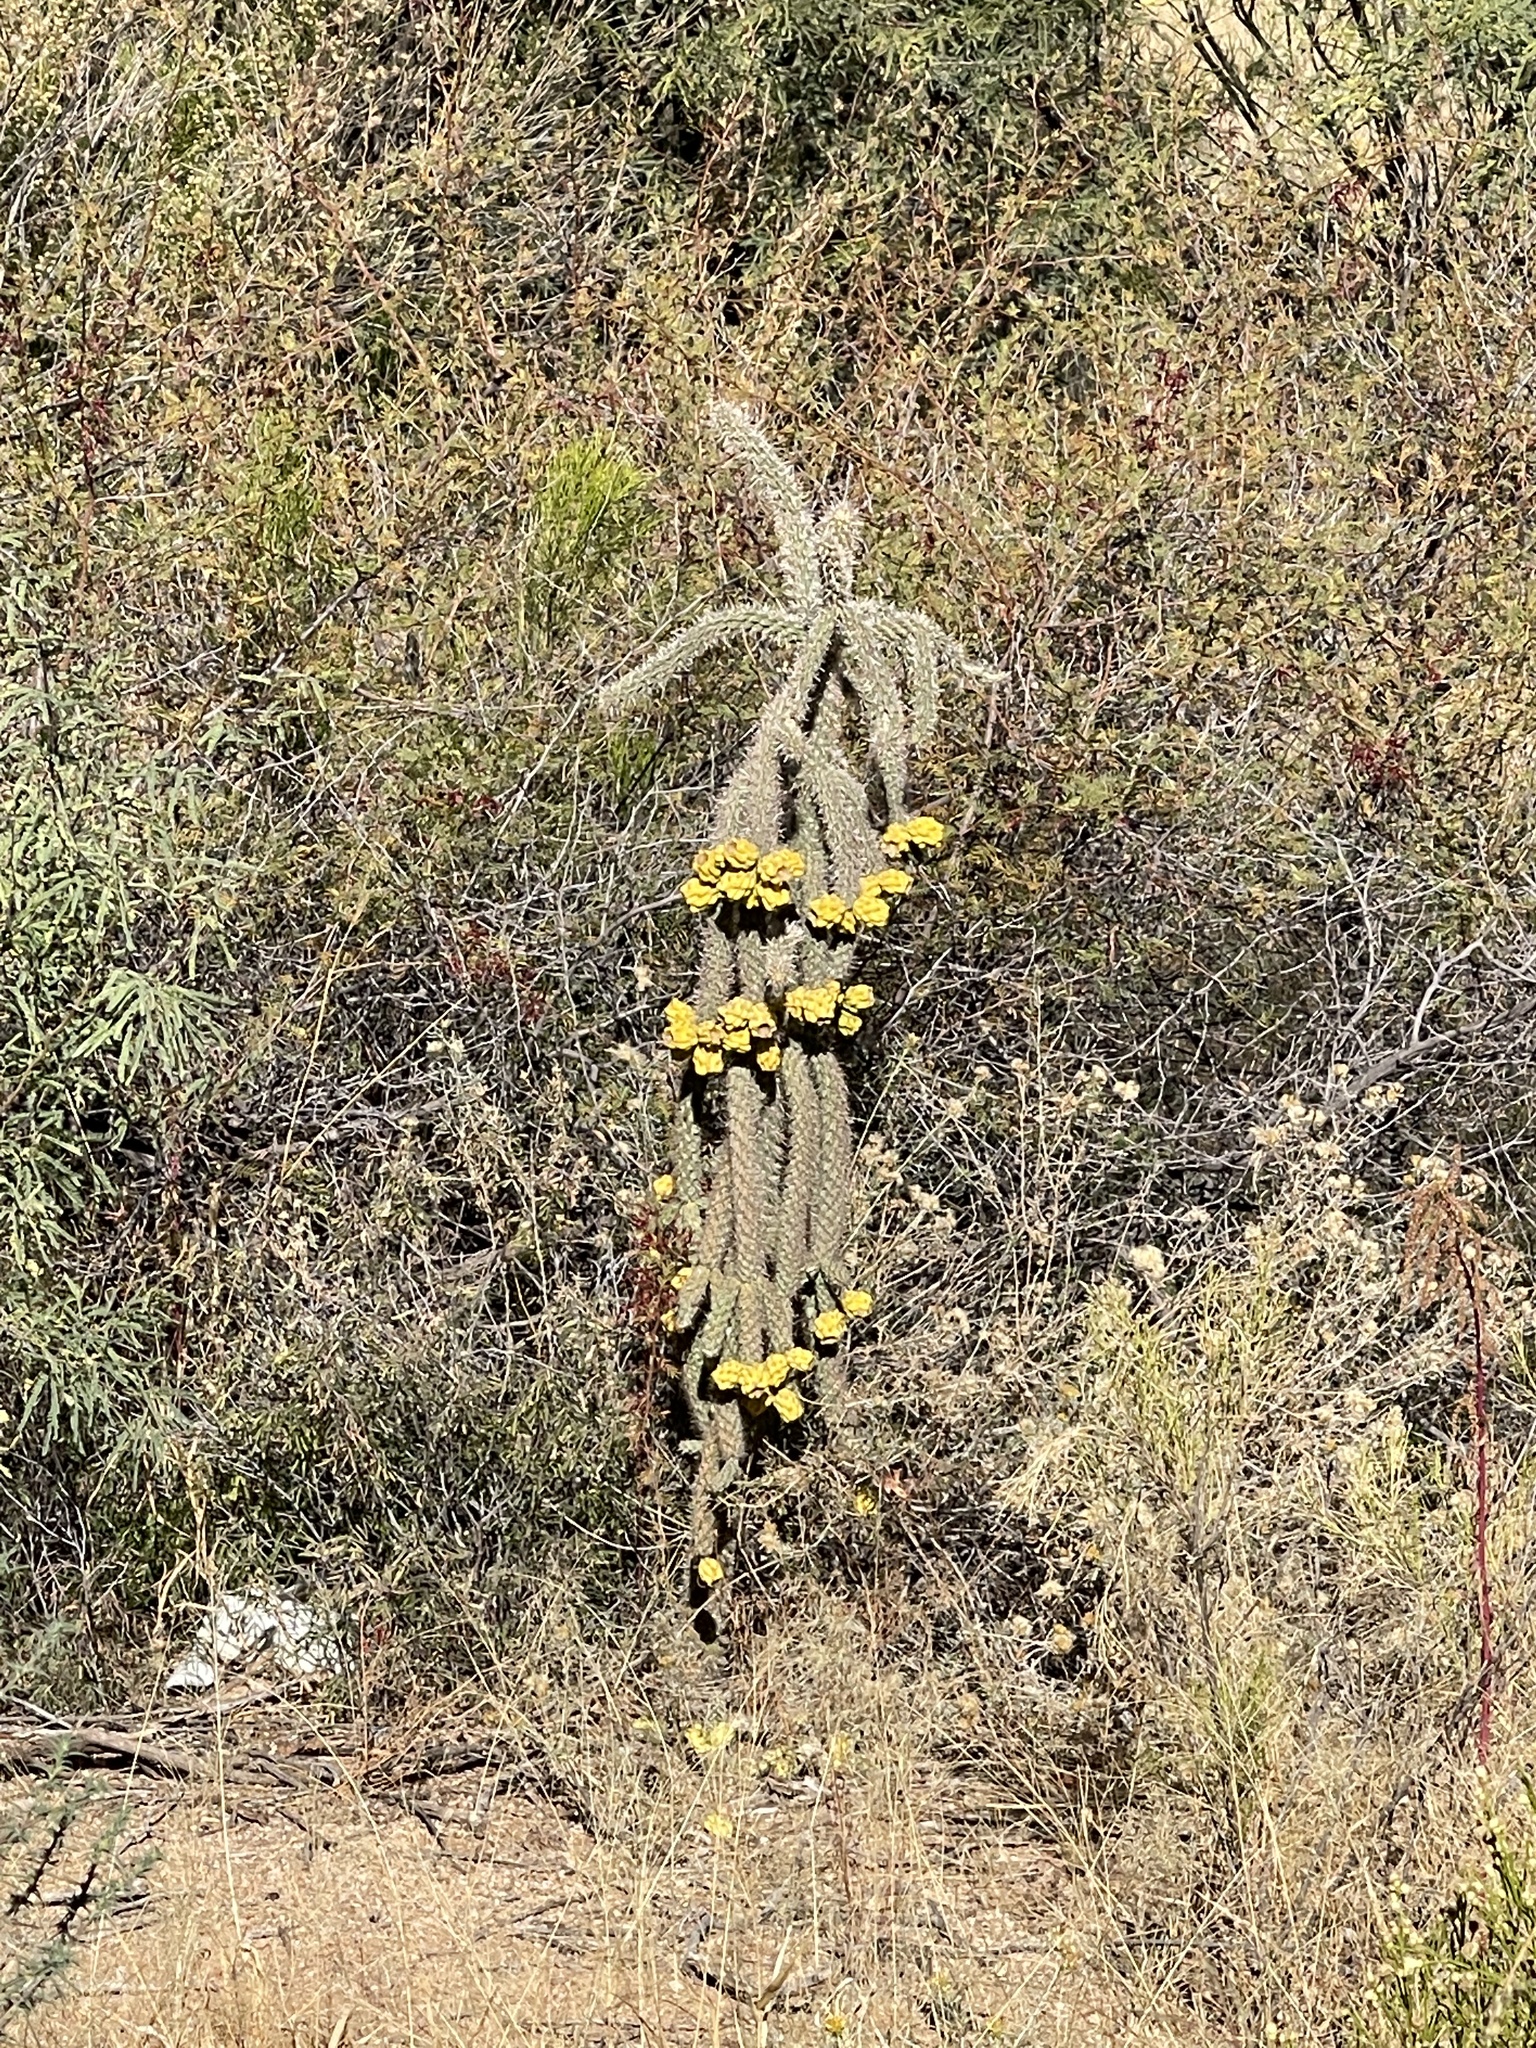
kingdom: Plantae
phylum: Tracheophyta
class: Magnoliopsida
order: Caryophyllales
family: Cactaceae
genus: Cylindropuntia
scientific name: Cylindropuntia imbricata
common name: Candelabrum cactus
